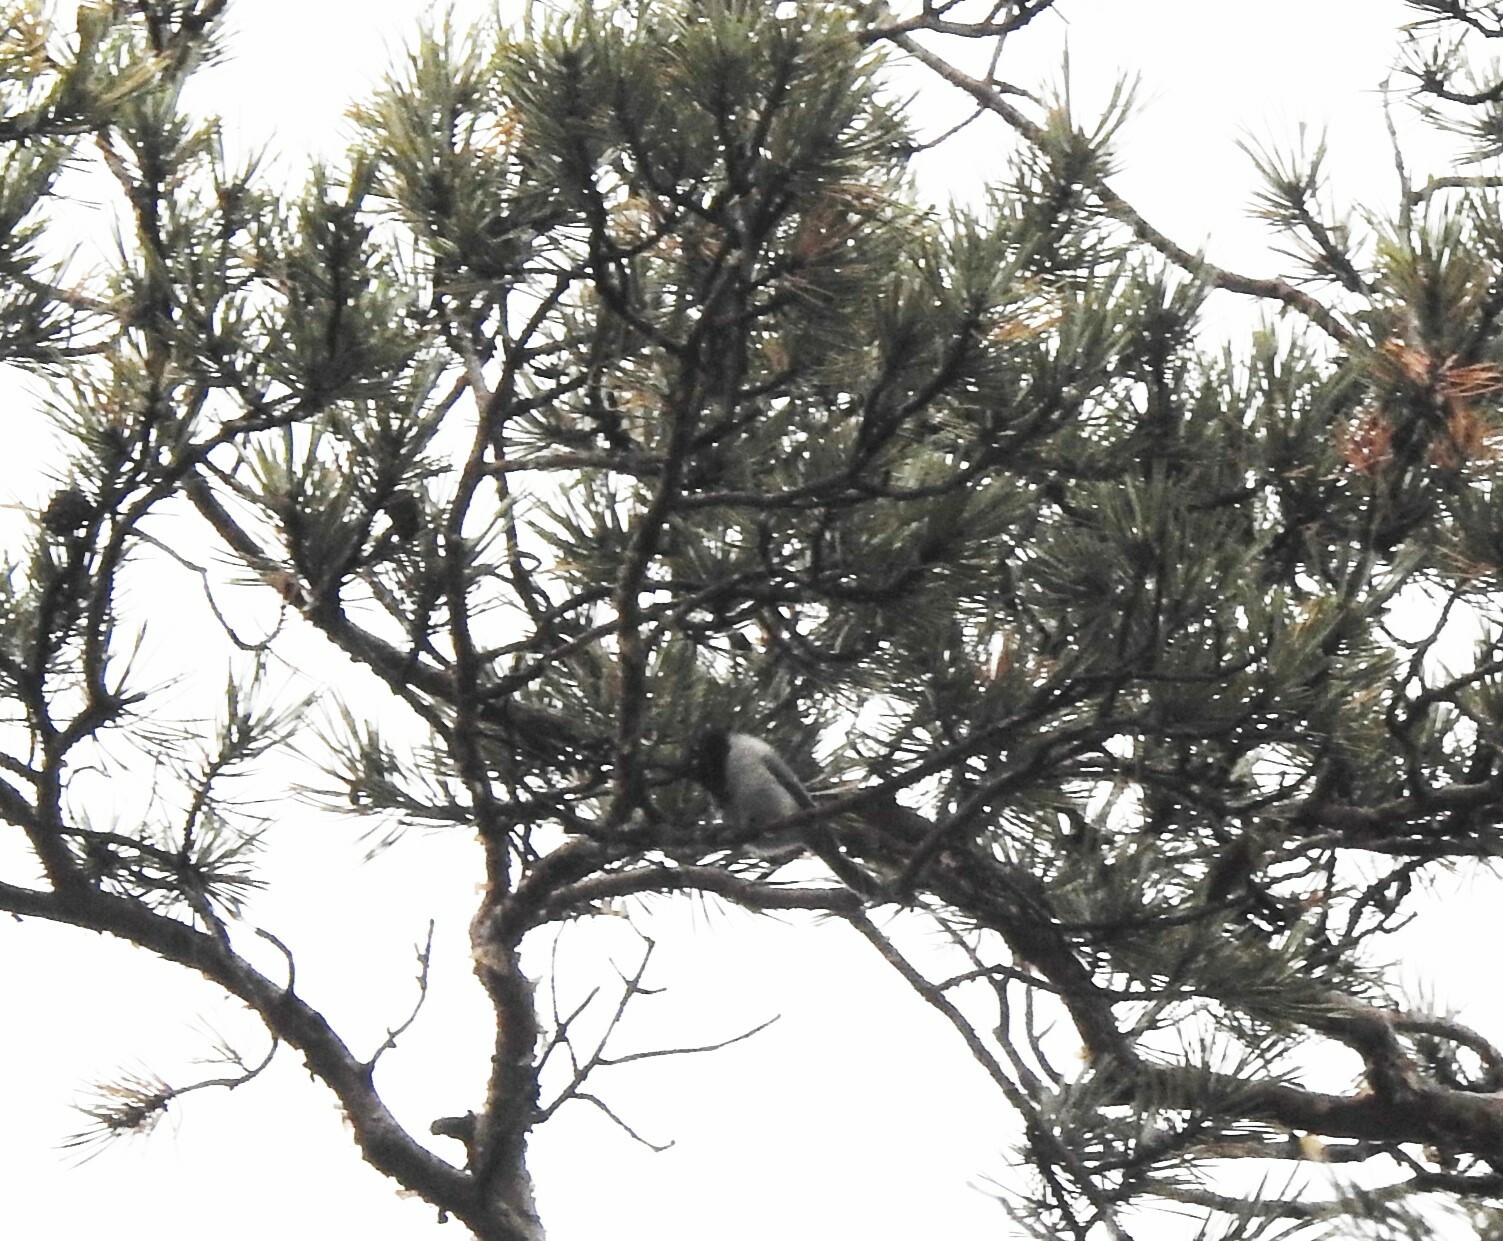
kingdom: Animalia
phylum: Chordata
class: Aves
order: Passeriformes
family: Paridae
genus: Poecile
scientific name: Poecile montanus
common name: Willow tit
